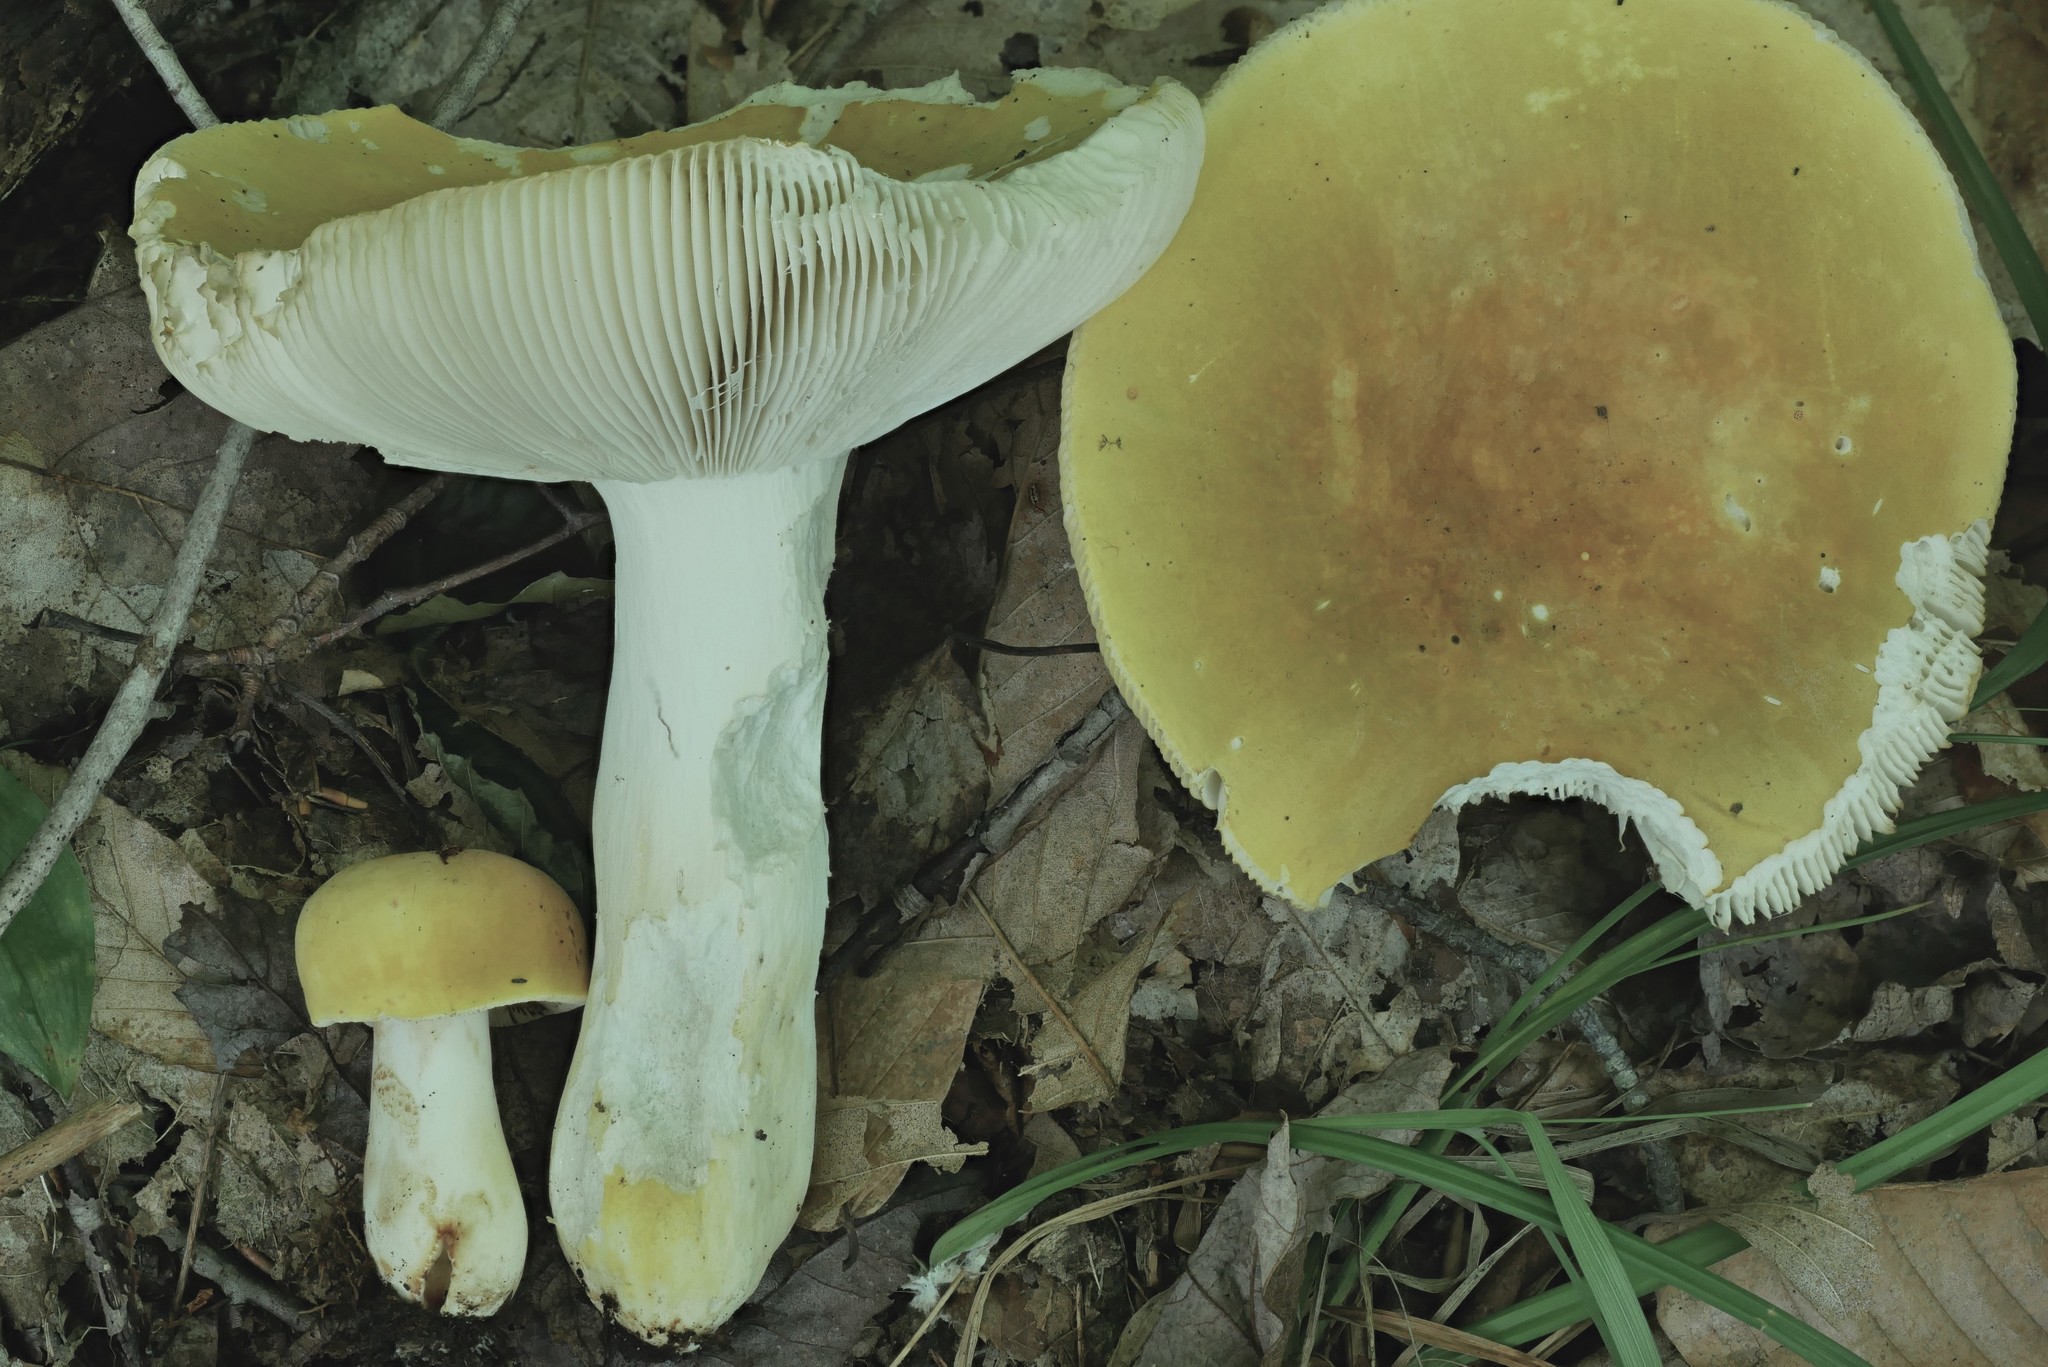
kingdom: Fungi
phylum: Basidiomycota
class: Agaricomycetes
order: Russulales
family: Russulaceae
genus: Russula
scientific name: Russula ochroleucoides
